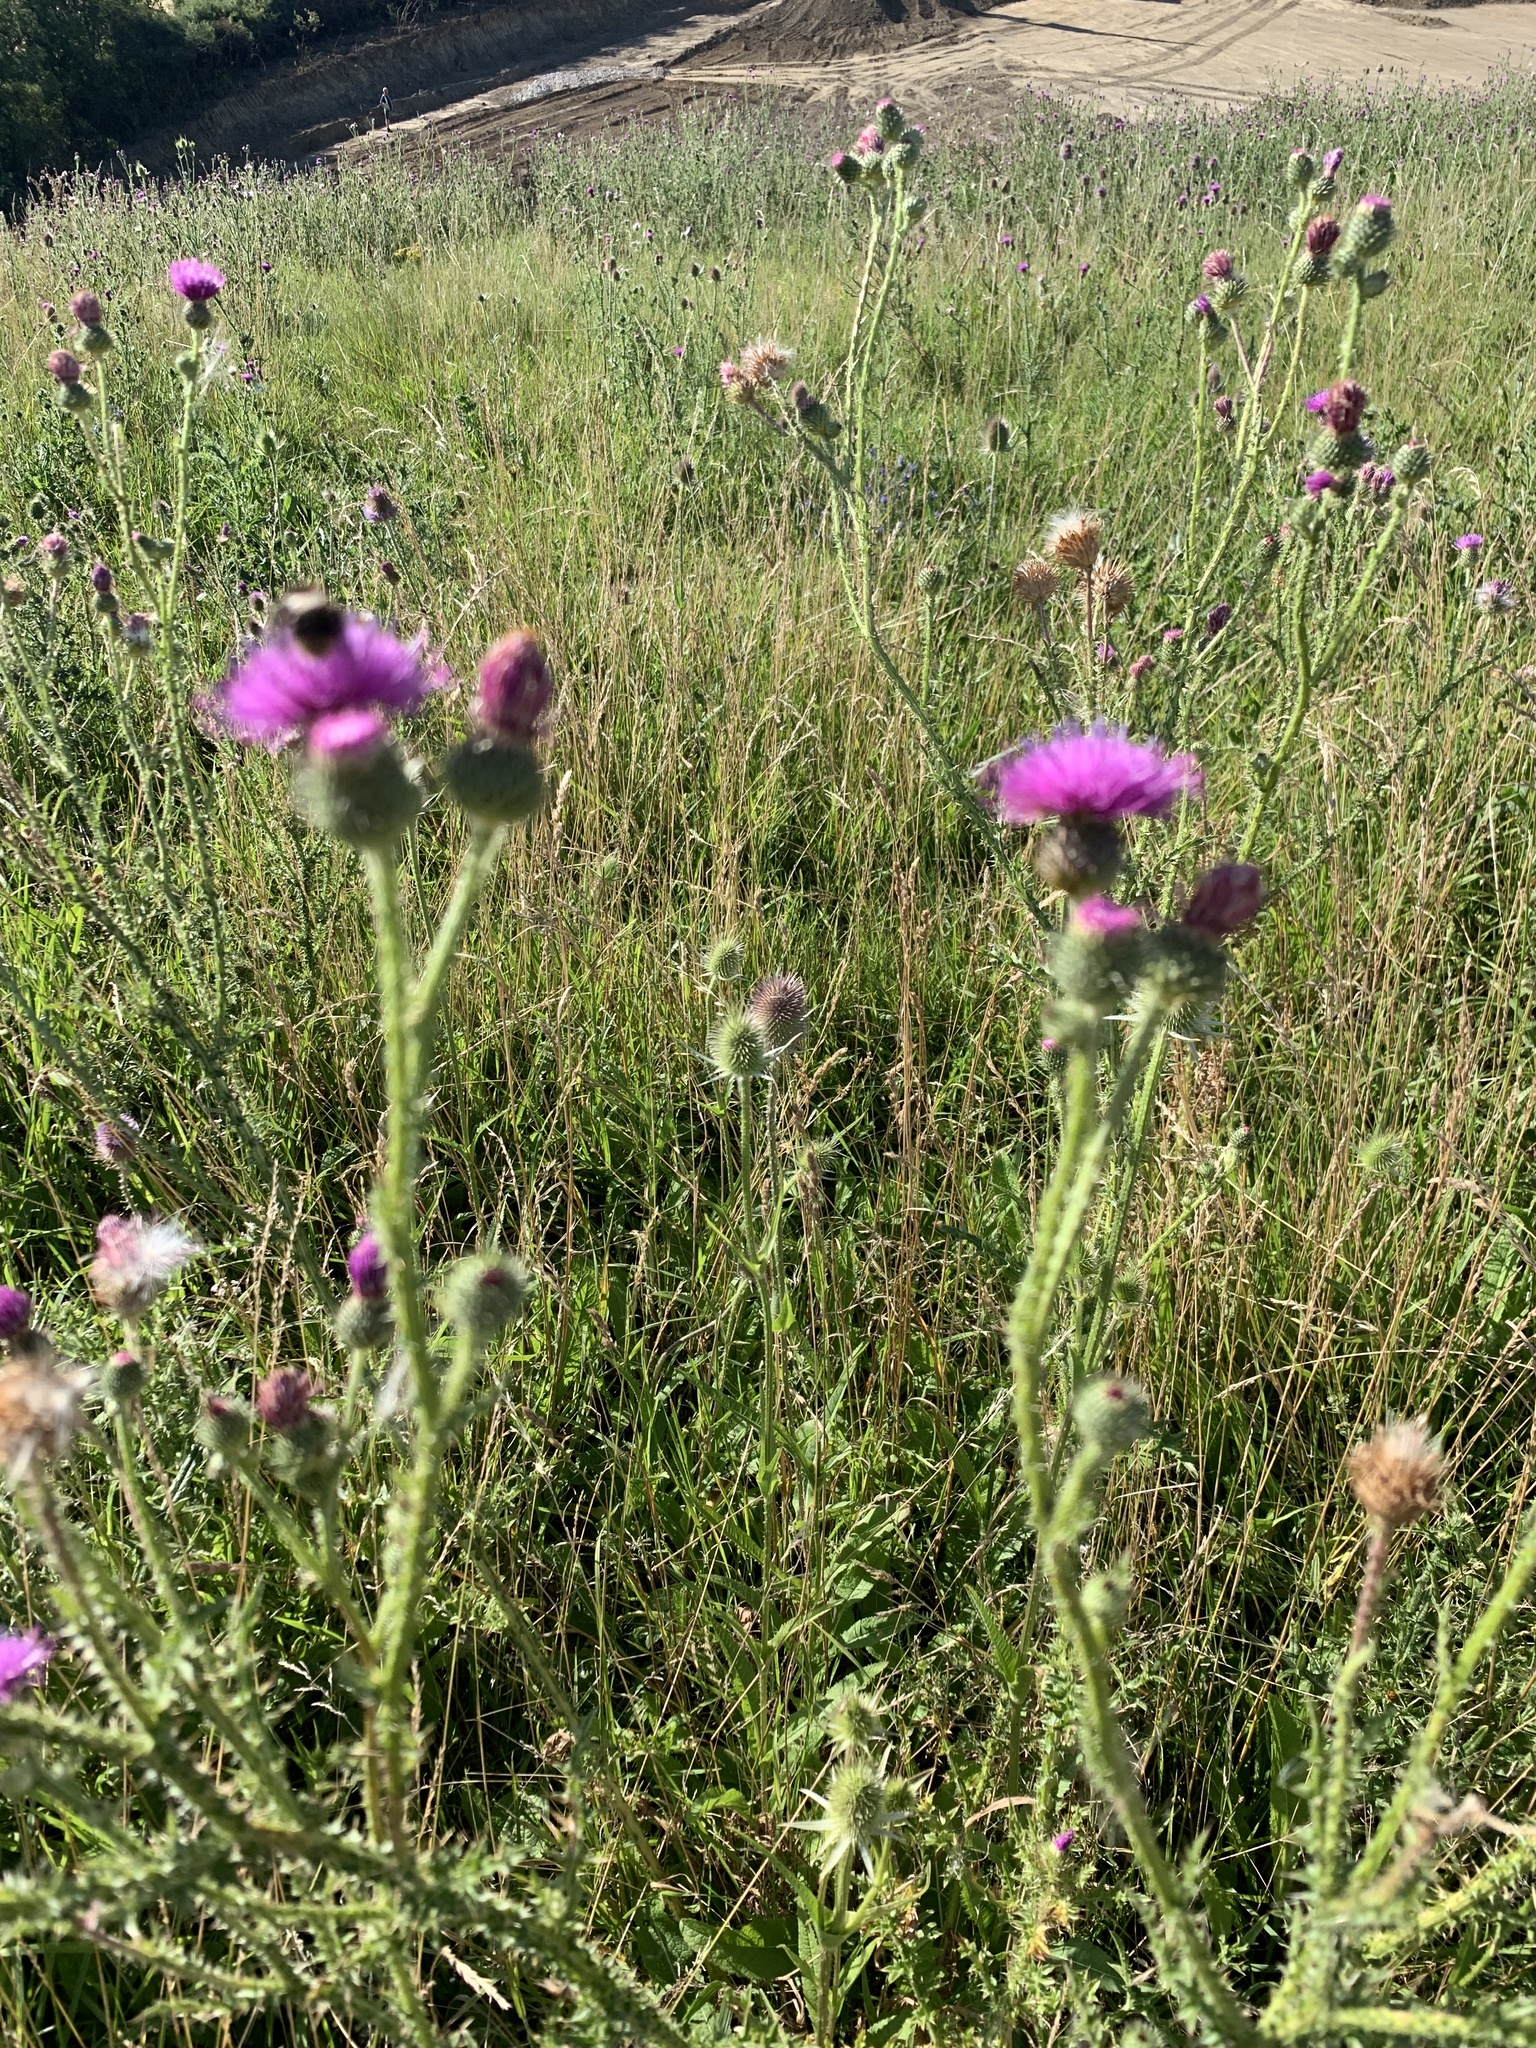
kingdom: Plantae
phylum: Tracheophyta
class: Magnoliopsida
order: Asterales
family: Asteraceae
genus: Carduus
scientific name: Carduus acanthoides
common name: Plumeless thistle
